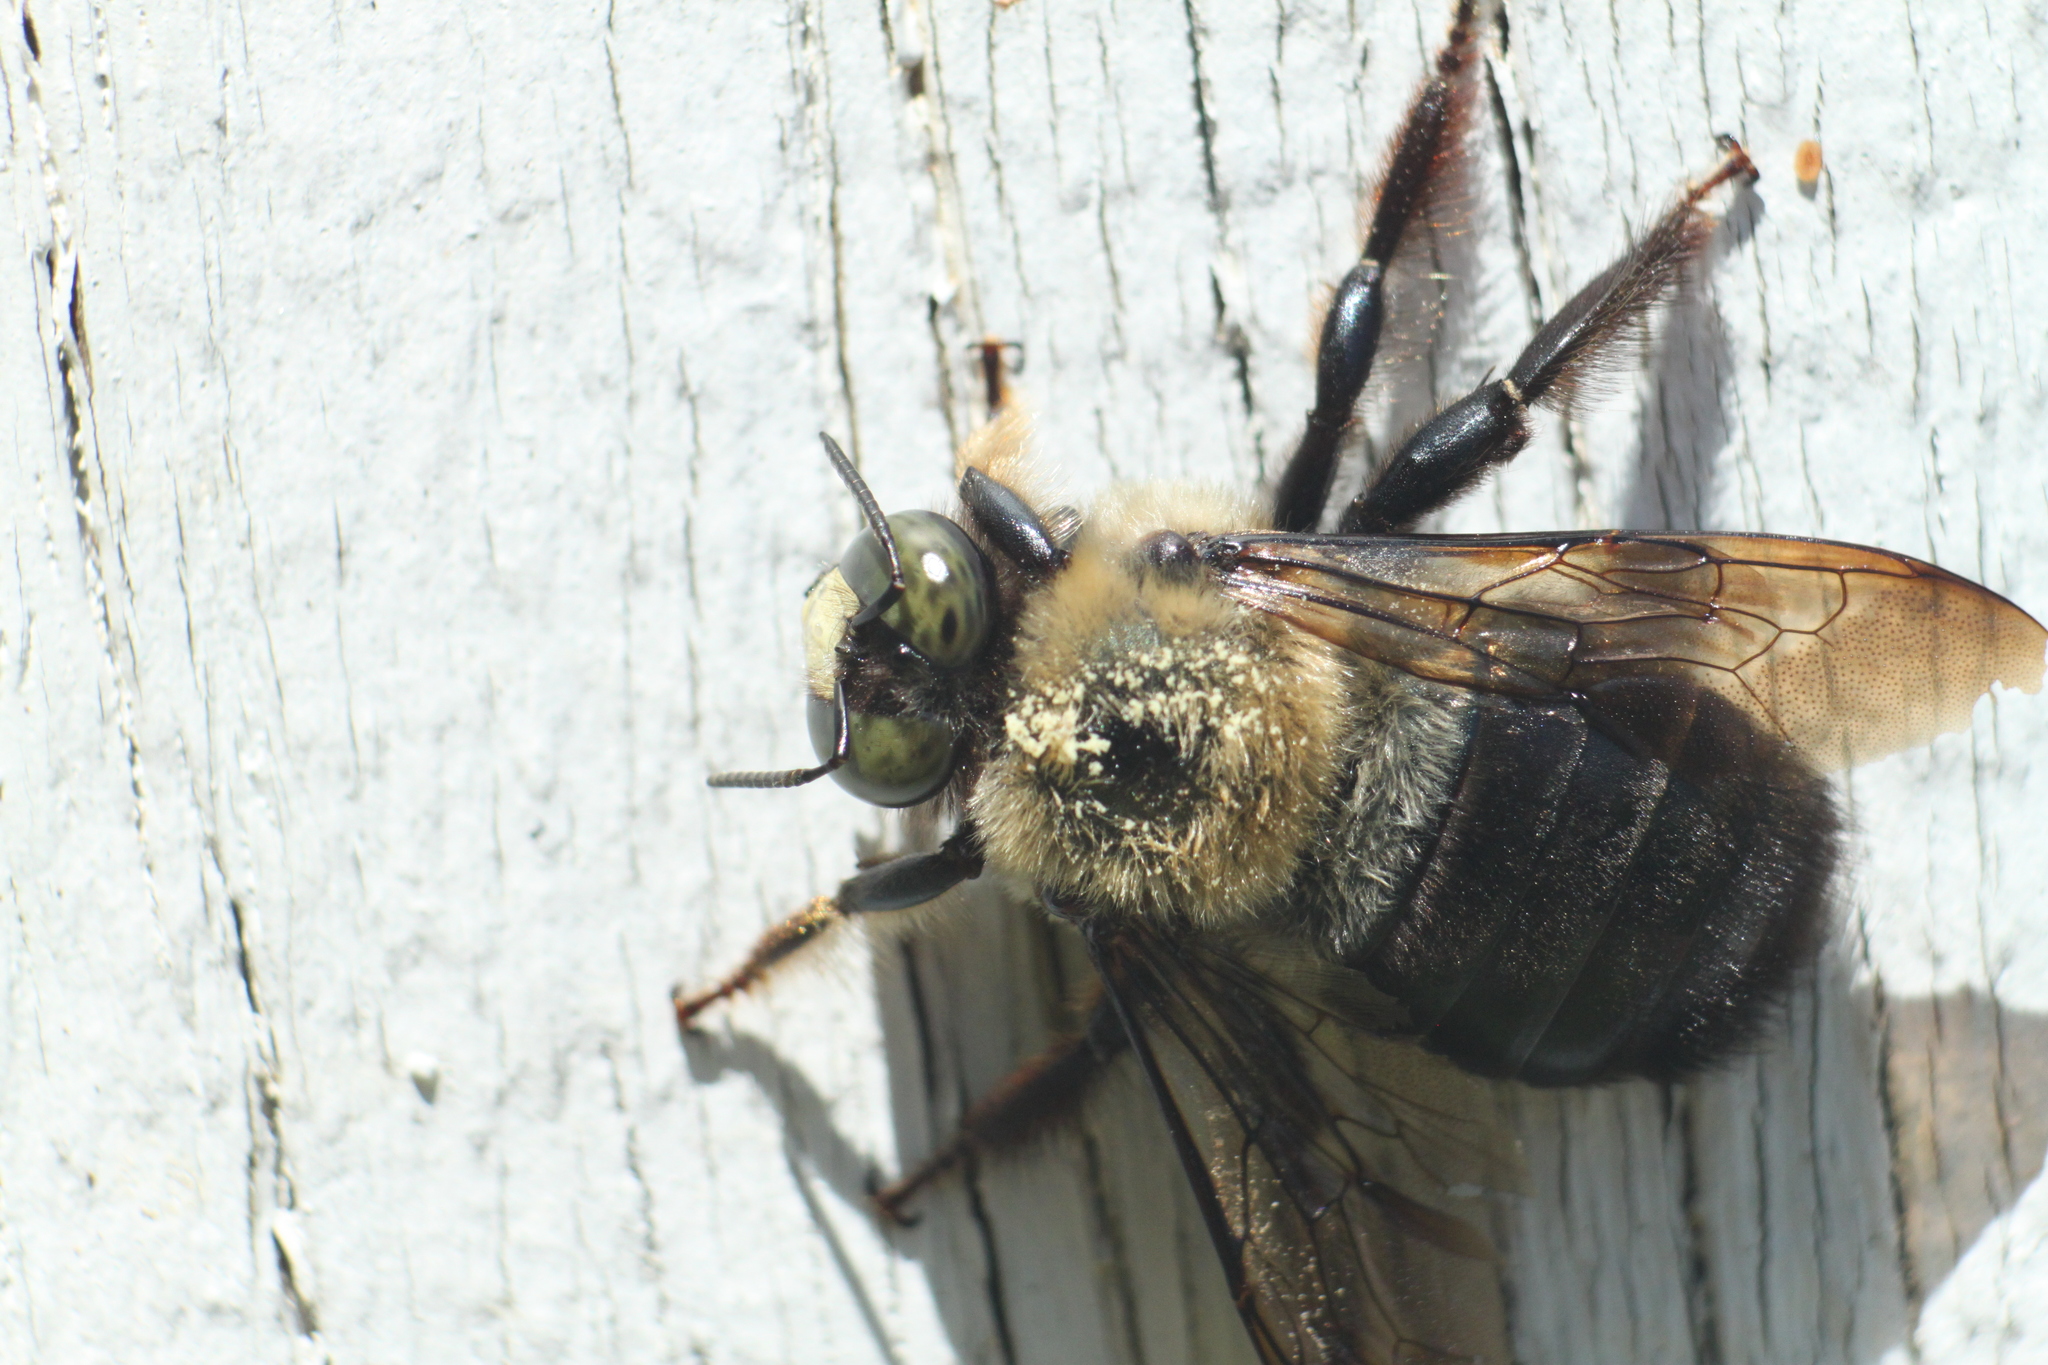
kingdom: Animalia
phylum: Arthropoda
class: Insecta
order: Hymenoptera
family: Apidae
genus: Xylocopa
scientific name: Xylocopa virginica
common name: Carpenter bee
